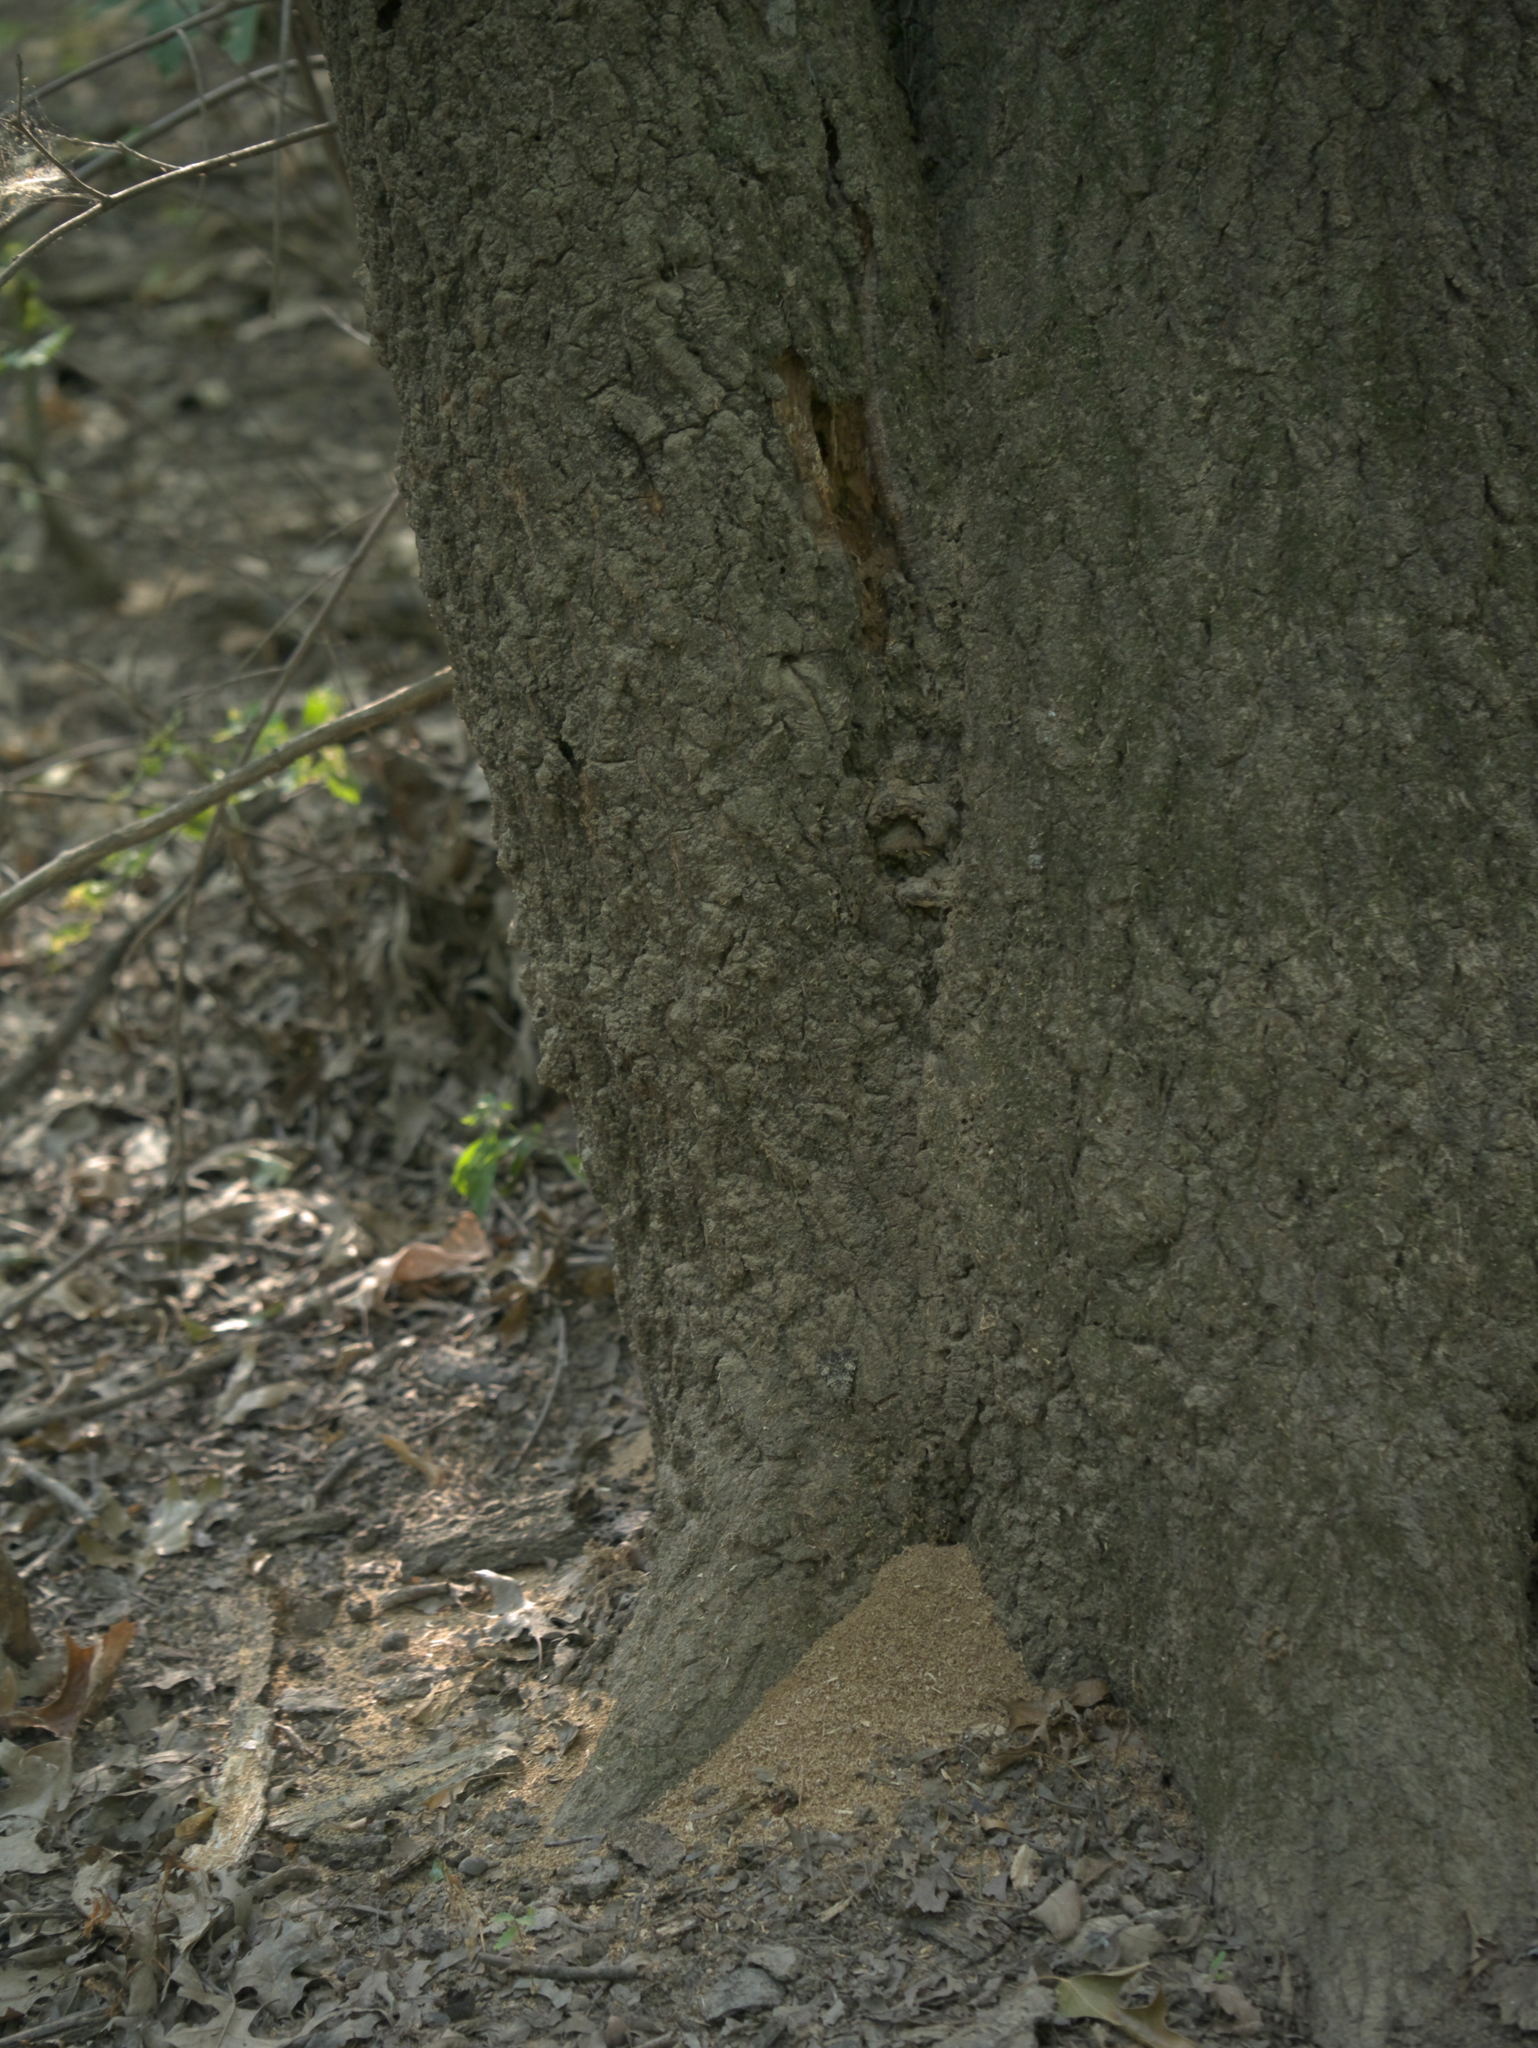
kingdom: Animalia
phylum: Arthropoda
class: Insecta
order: Coleoptera
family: Tenebrionidae
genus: Centronopus
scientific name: Centronopus opacus
